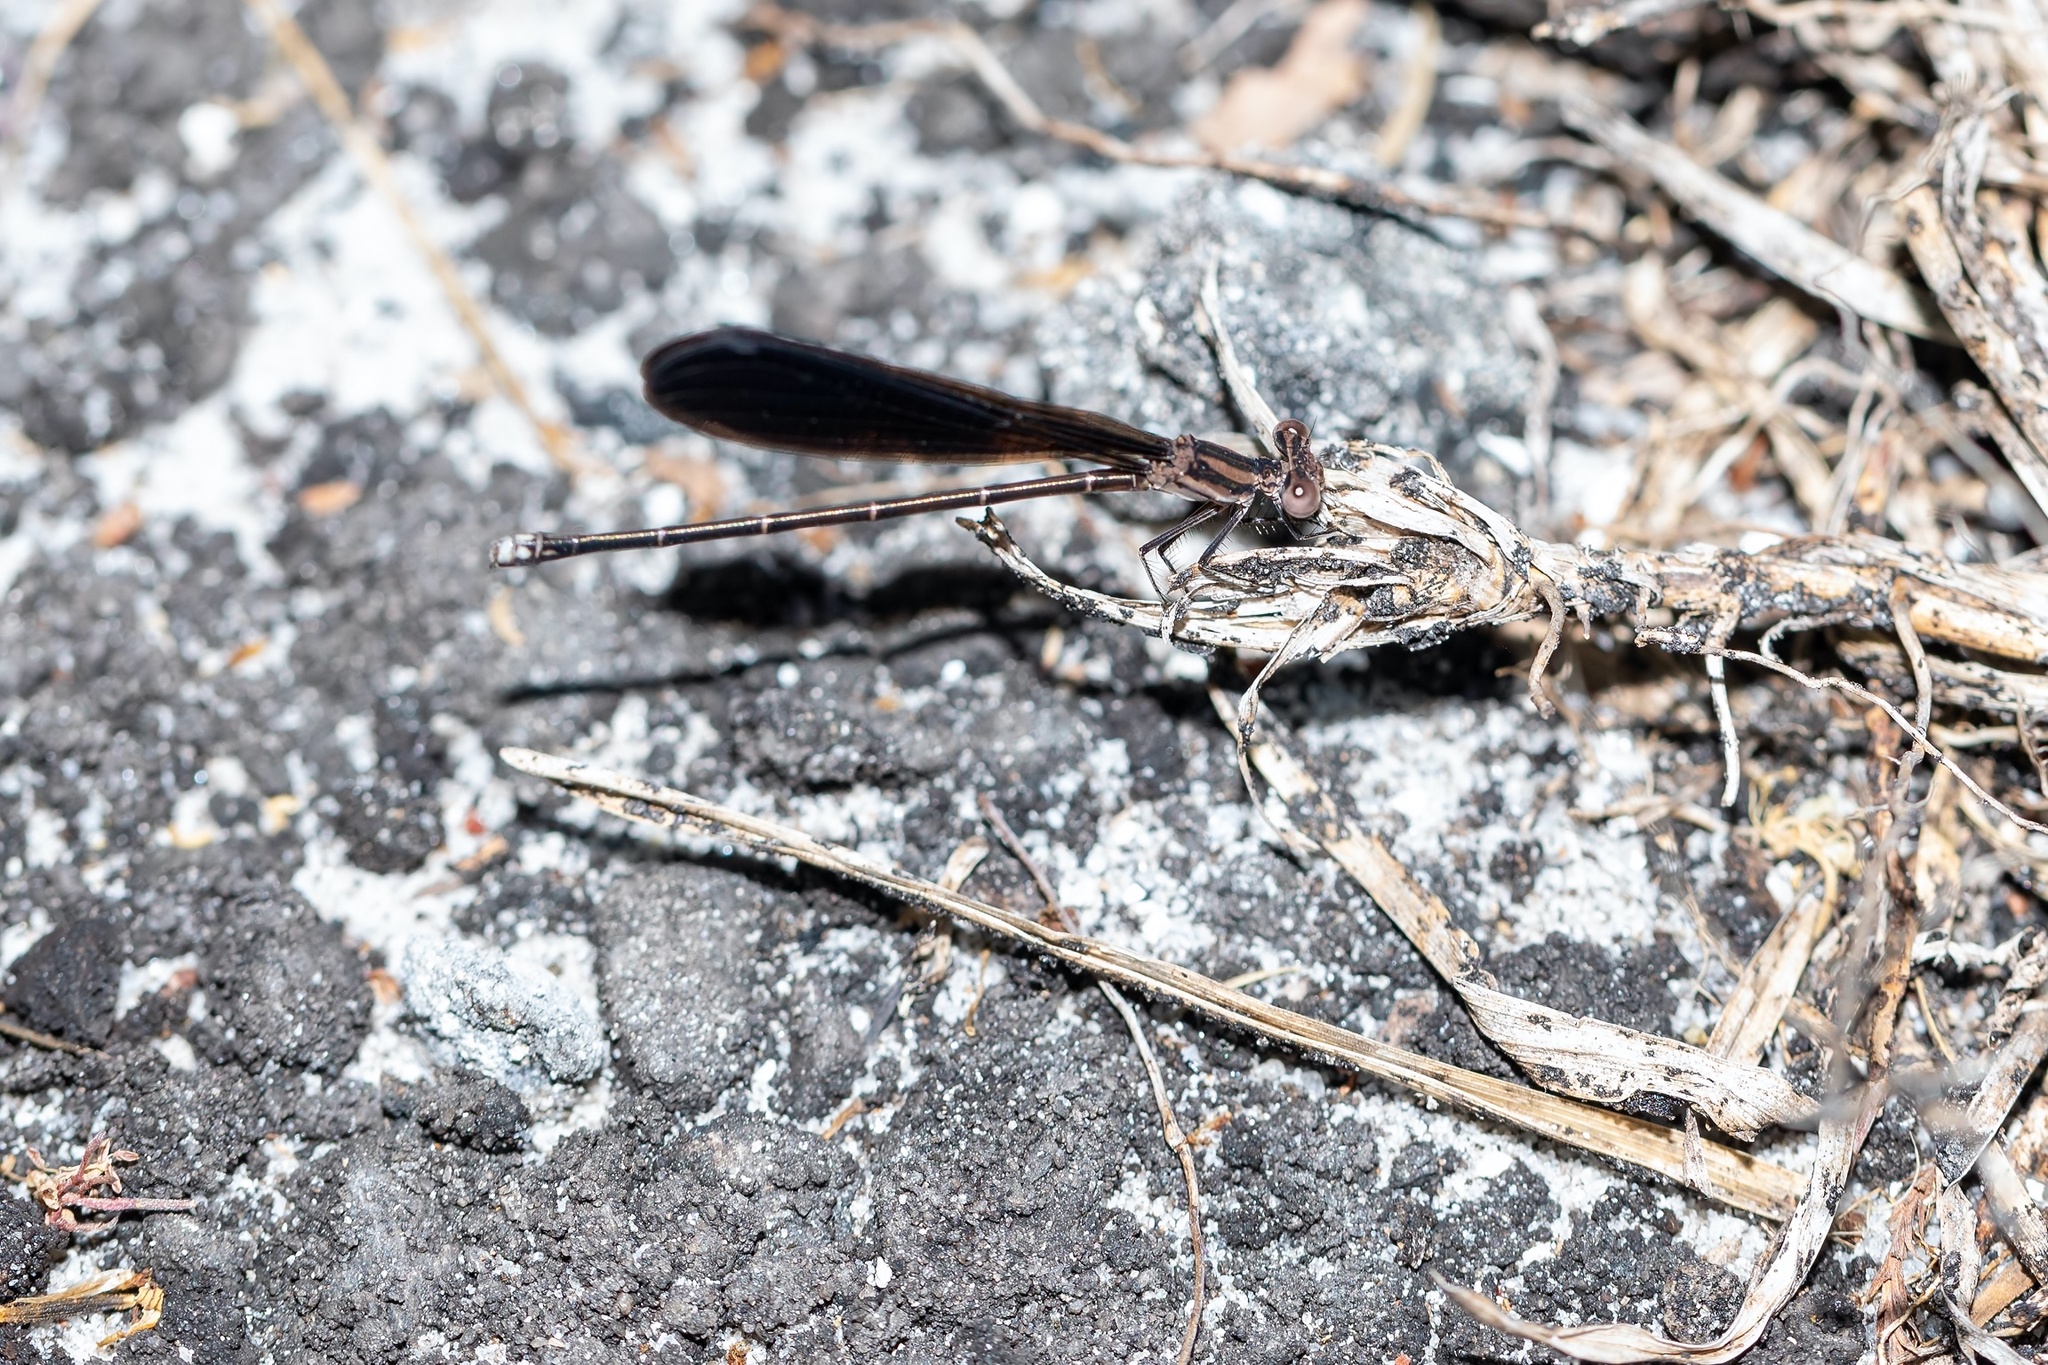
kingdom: Animalia
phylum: Arthropoda
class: Insecta
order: Odonata
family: Coenagrionidae
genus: Argia
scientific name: Argia fumipennis
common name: Variable dancer
